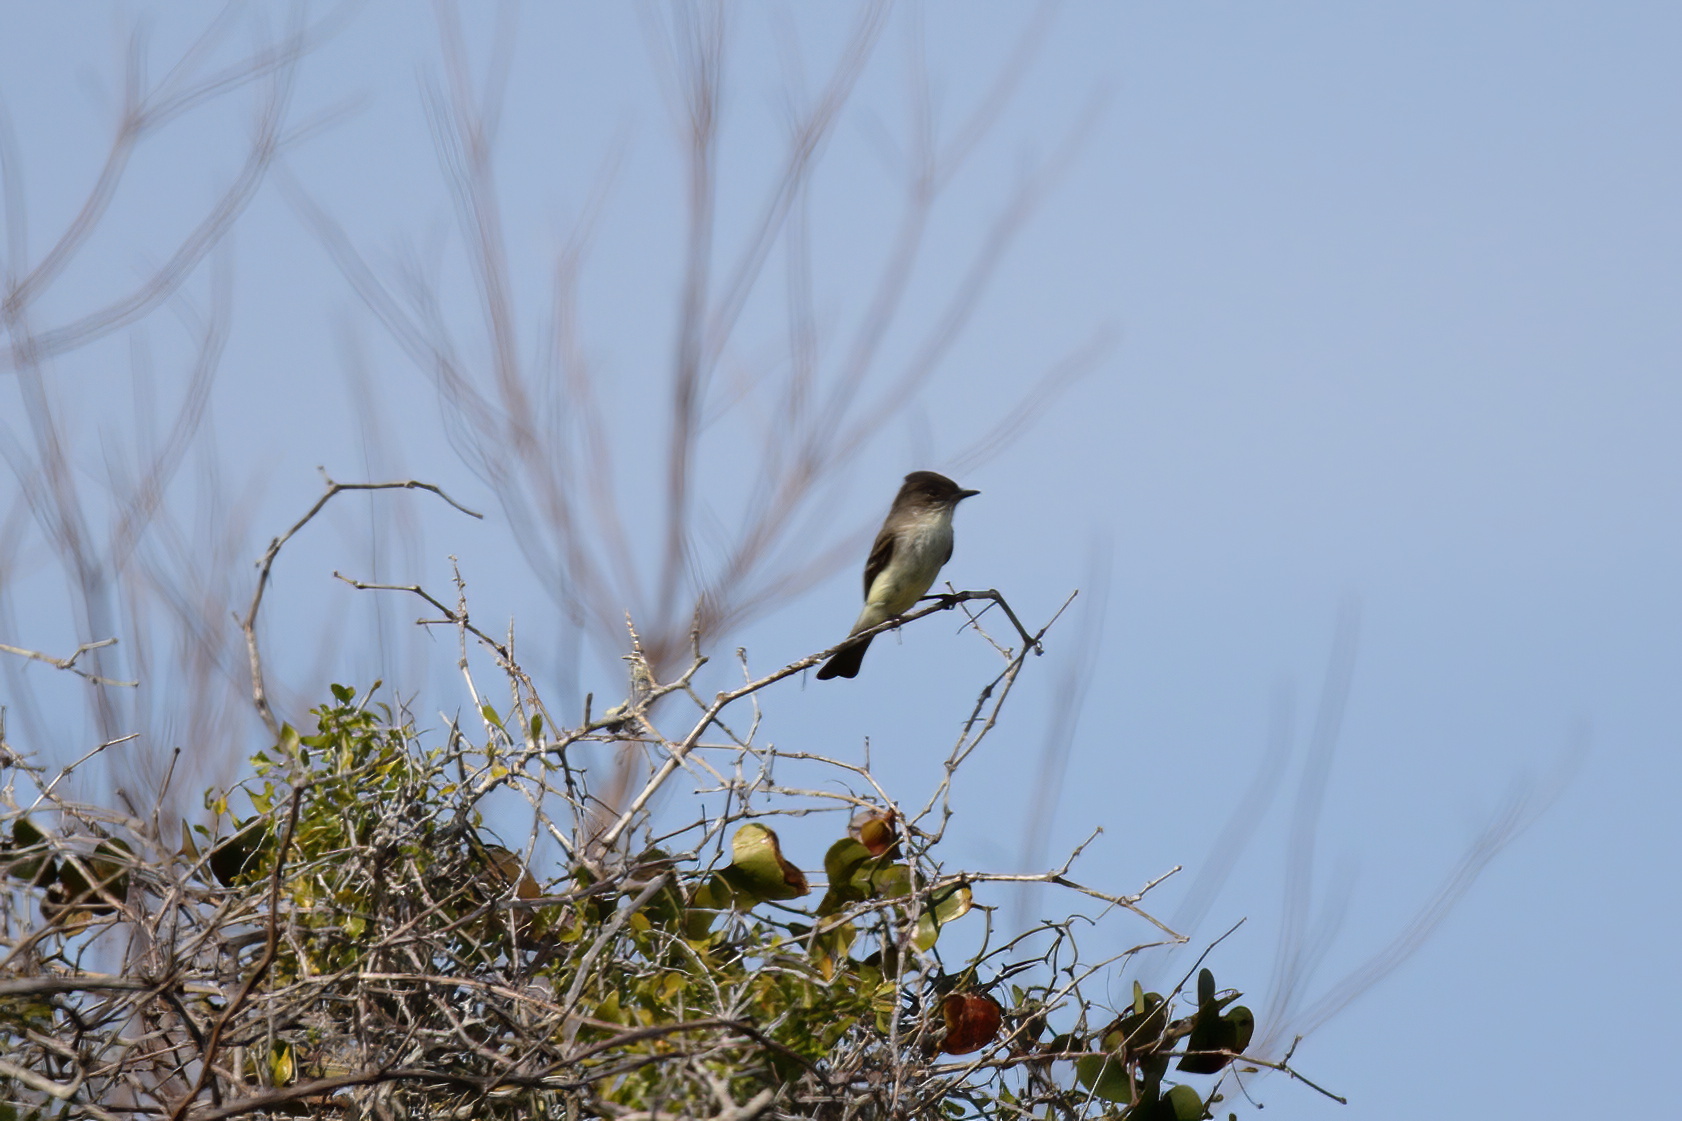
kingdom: Animalia
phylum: Chordata
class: Aves
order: Passeriformes
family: Tyrannidae
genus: Sayornis
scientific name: Sayornis phoebe
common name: Eastern phoebe
